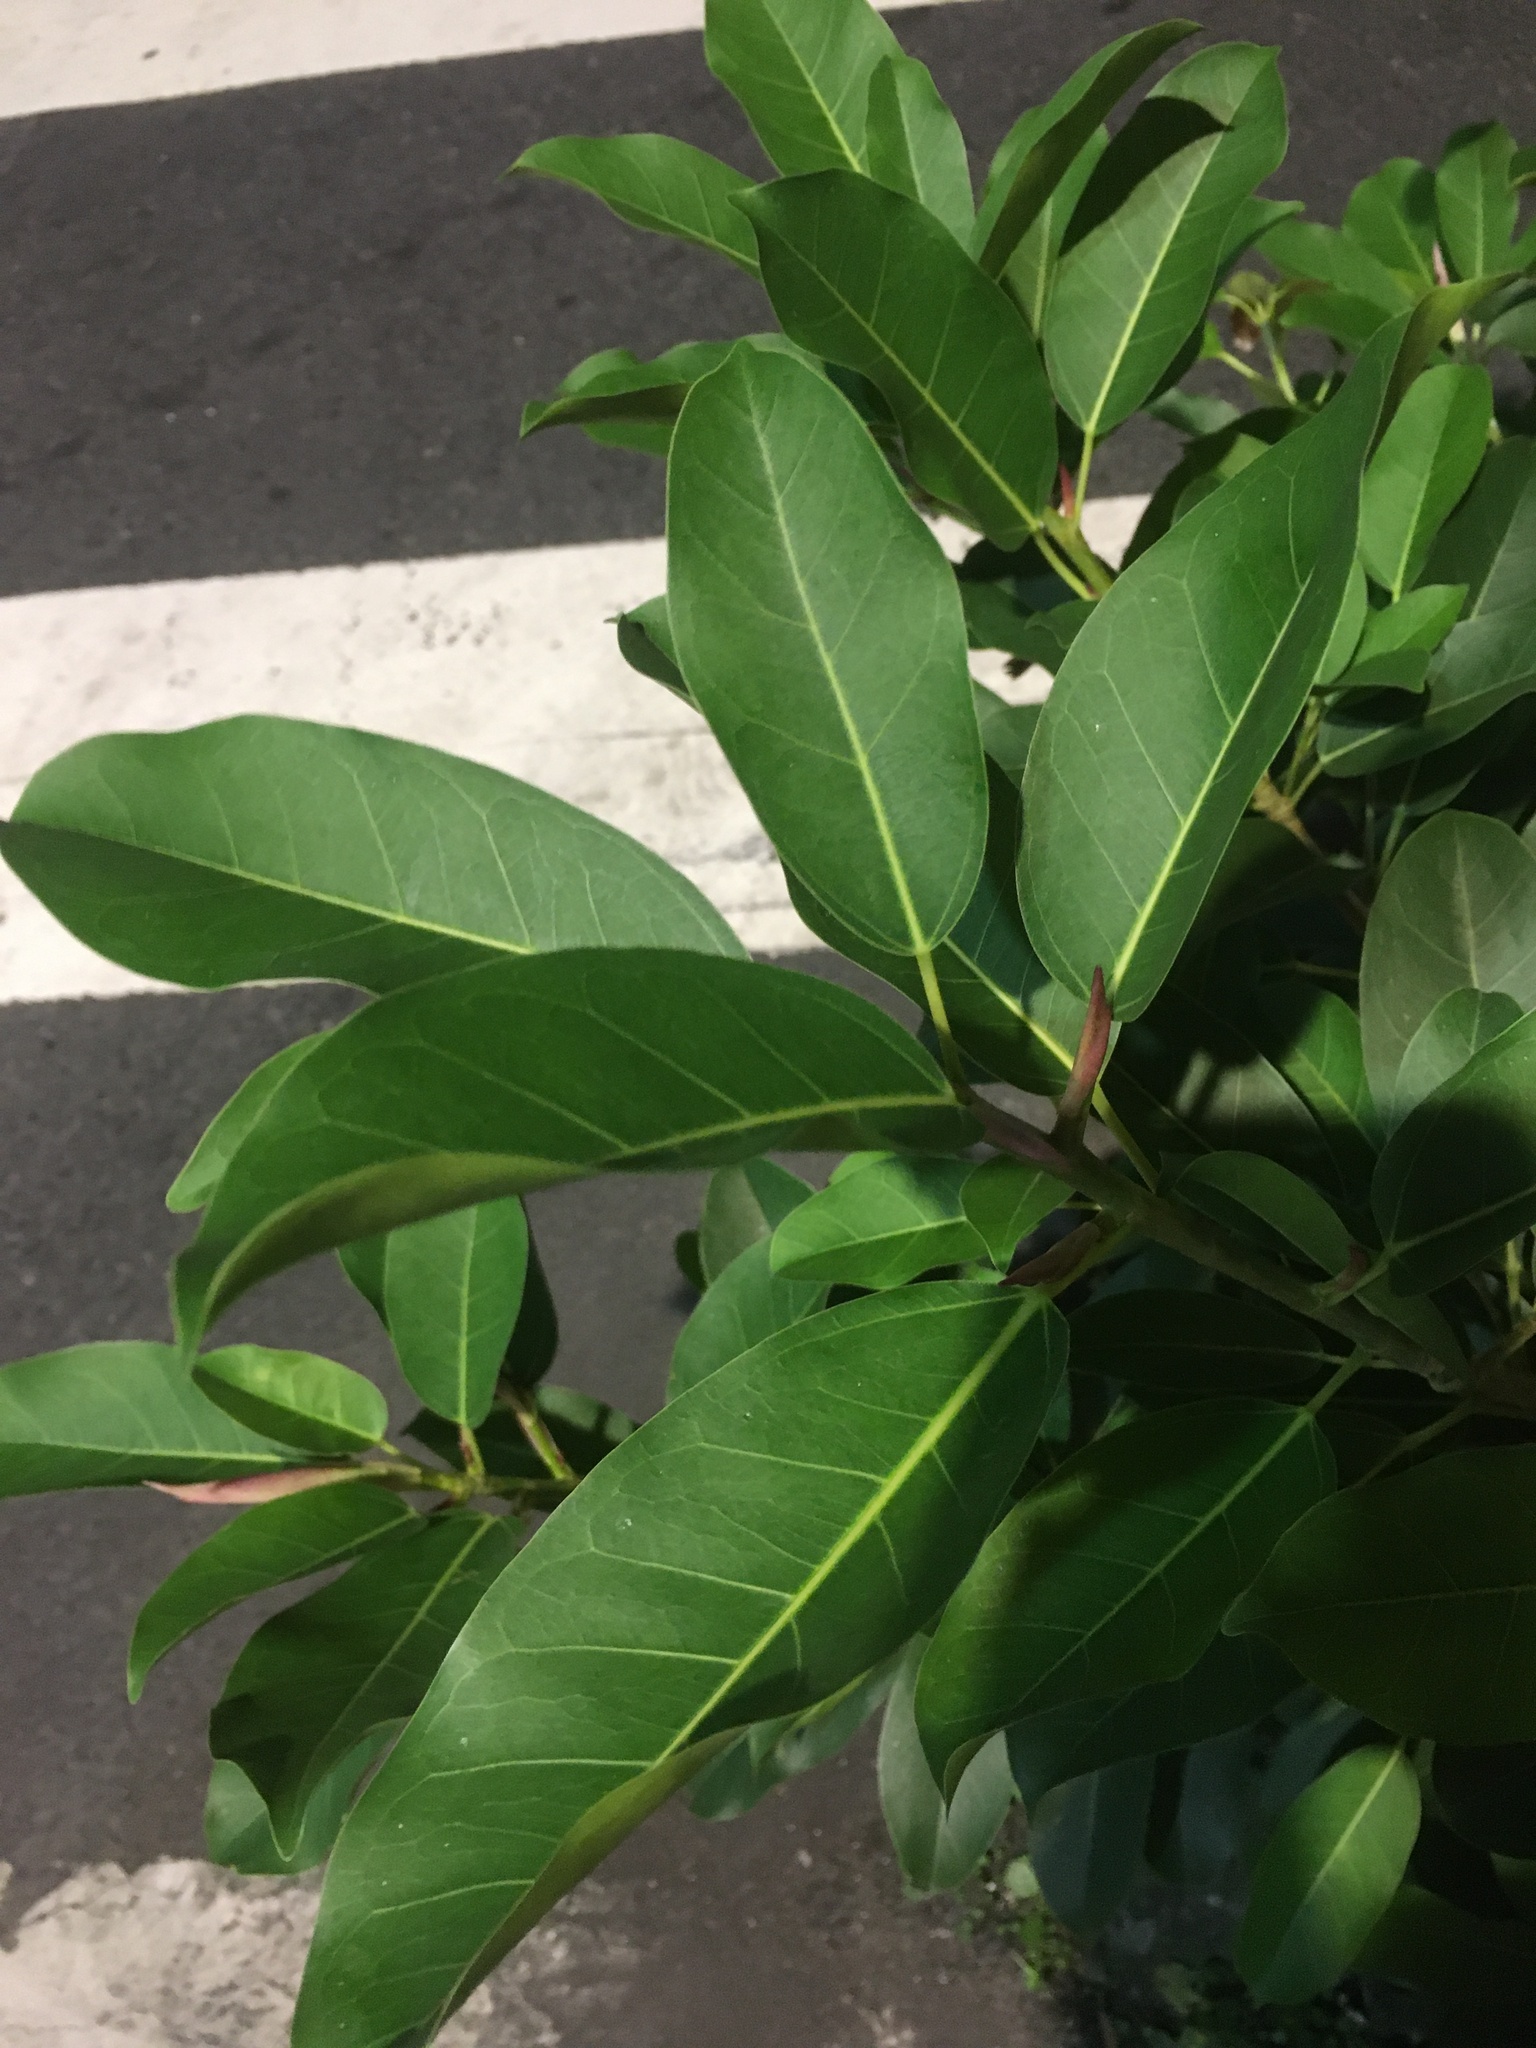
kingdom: Plantae
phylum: Tracheophyta
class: Magnoliopsida
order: Rosales
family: Moraceae
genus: Ficus
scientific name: Ficus subpisocarpa
